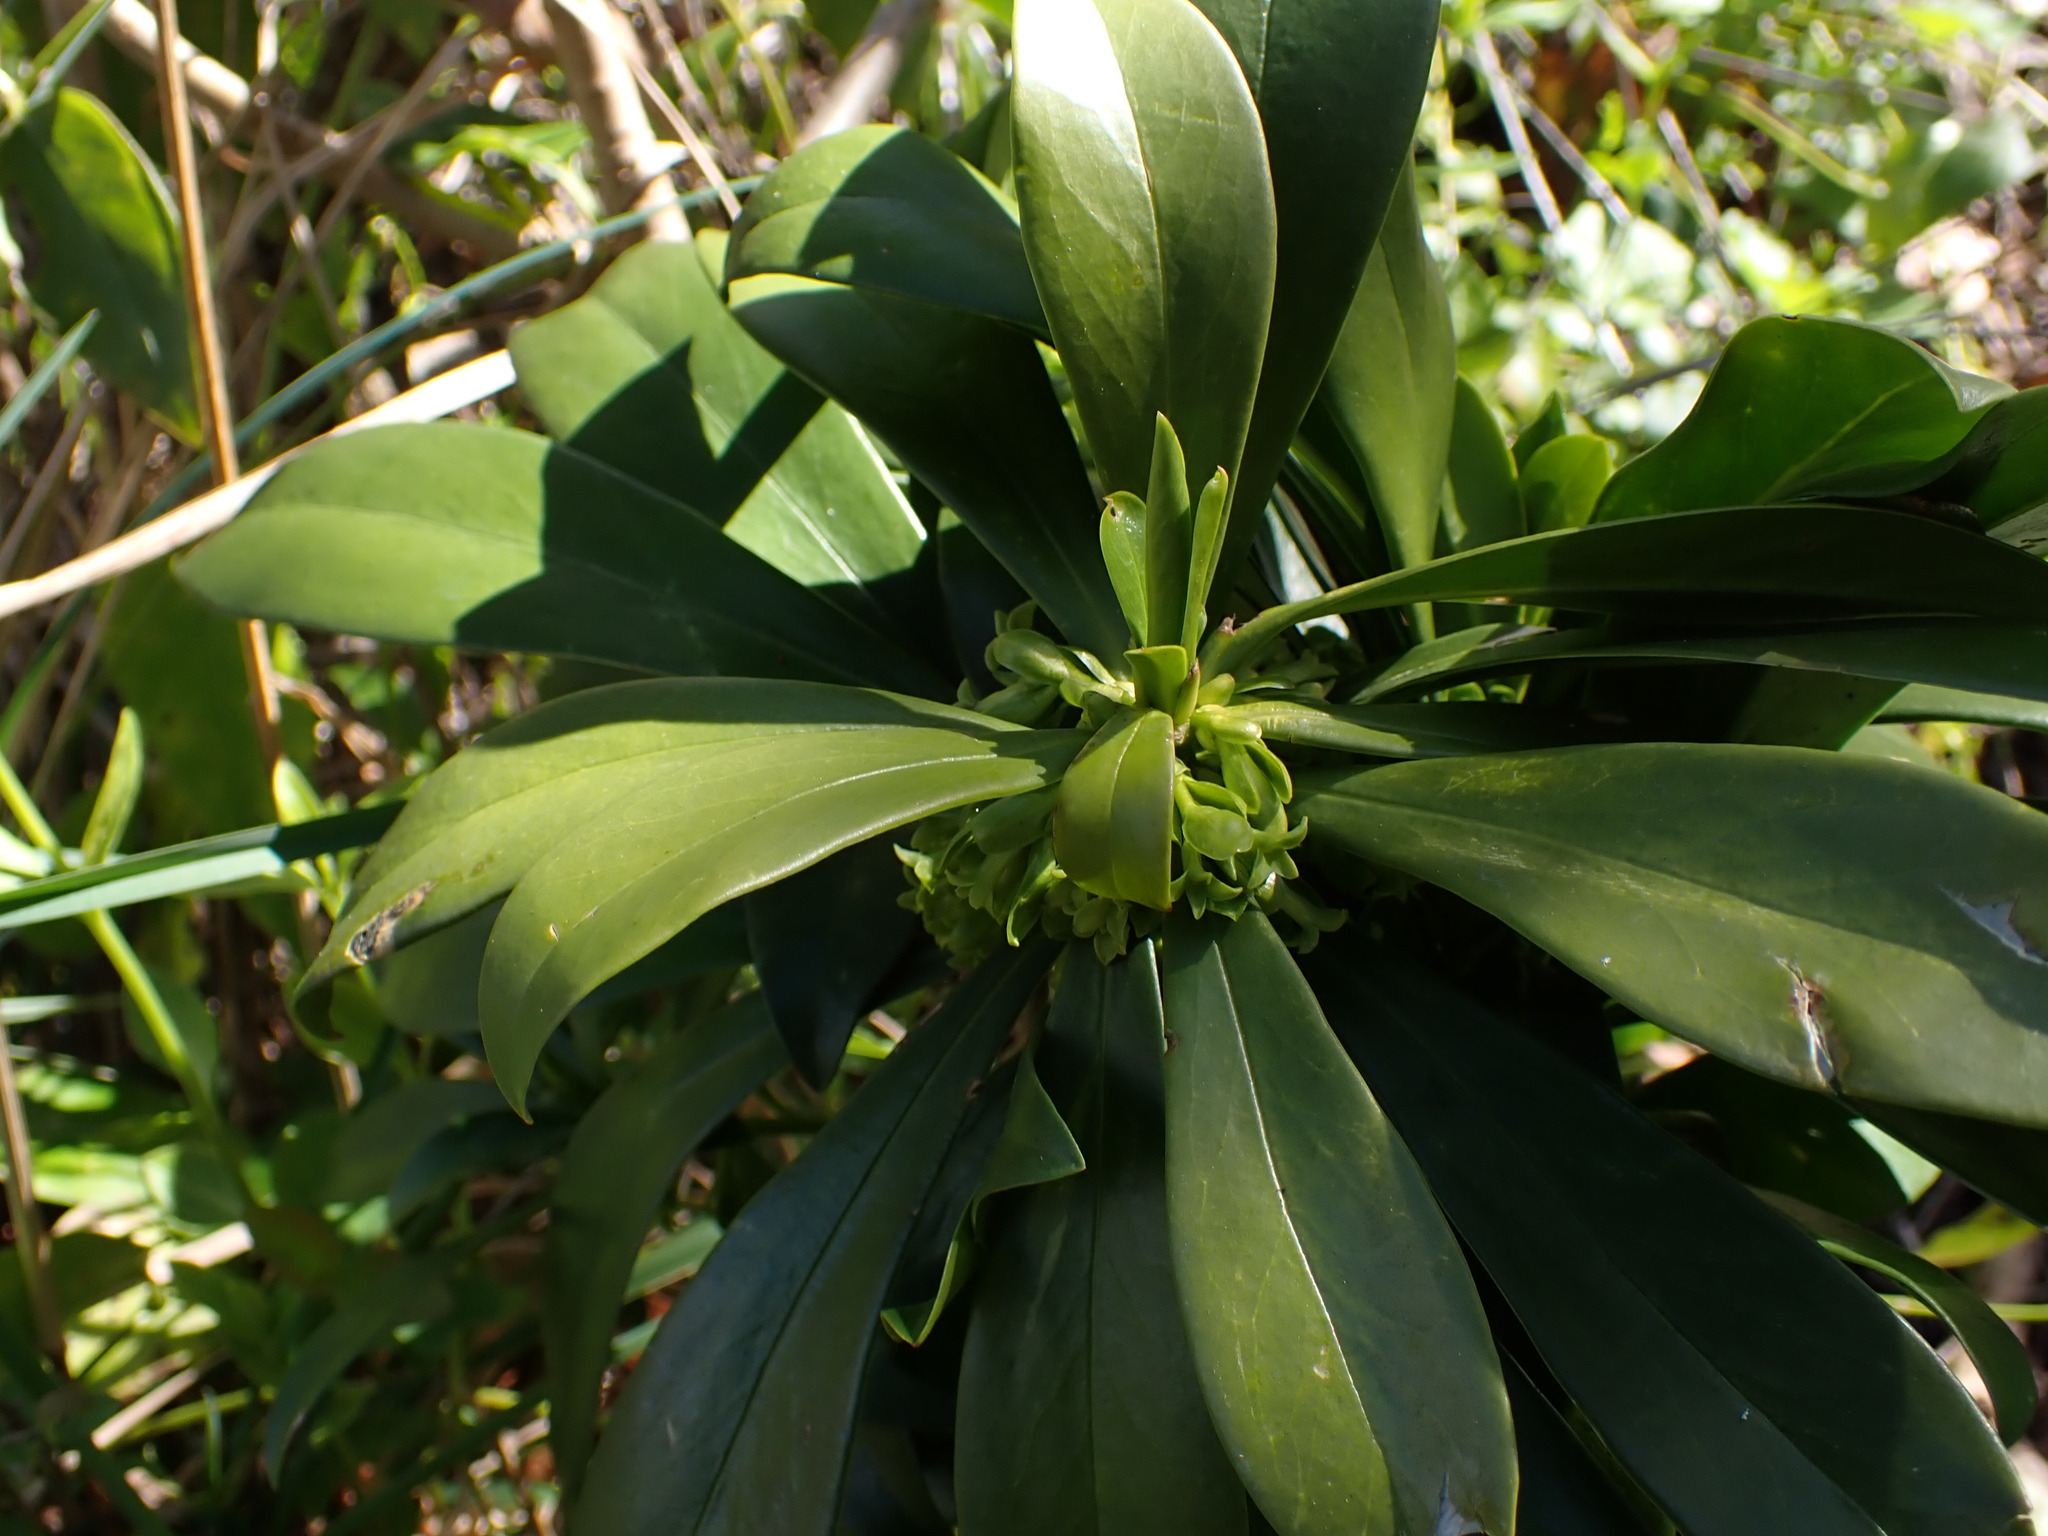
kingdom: Plantae
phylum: Tracheophyta
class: Magnoliopsida
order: Malvales
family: Thymelaeaceae
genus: Daphne
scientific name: Daphne laureola
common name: Spurge-laurel
